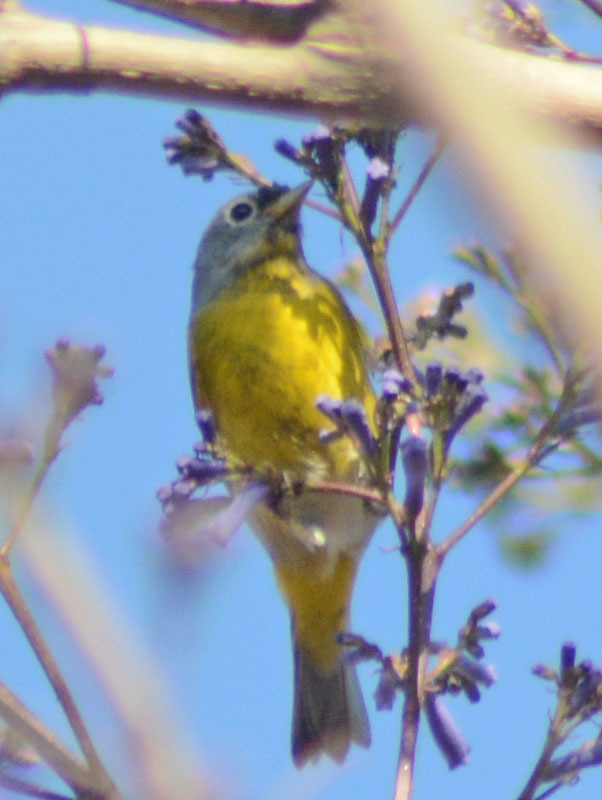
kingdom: Animalia
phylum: Chordata
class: Aves
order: Passeriformes
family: Parulidae
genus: Leiothlypis
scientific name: Leiothlypis ruficapilla
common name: Nashville warbler
